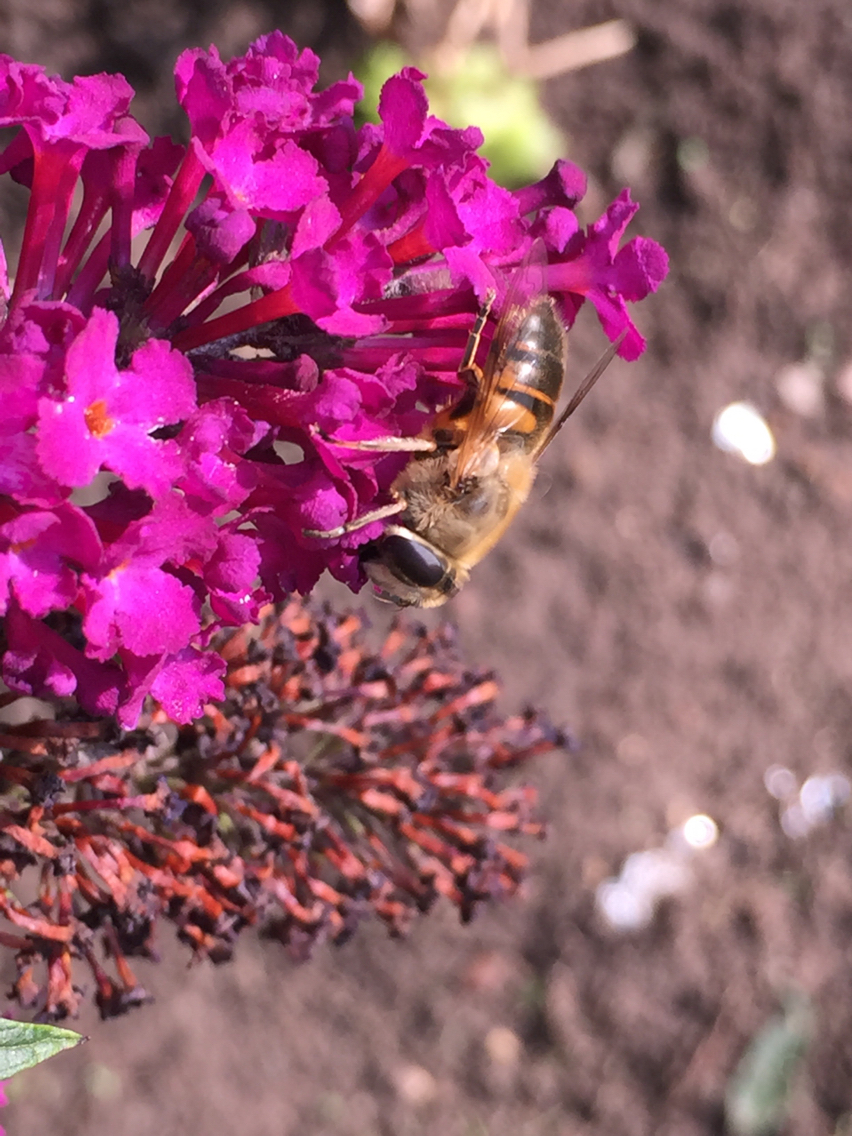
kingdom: Animalia
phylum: Arthropoda
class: Insecta
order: Diptera
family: Syrphidae
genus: Eristalis
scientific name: Eristalis tenax
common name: Drone fly
